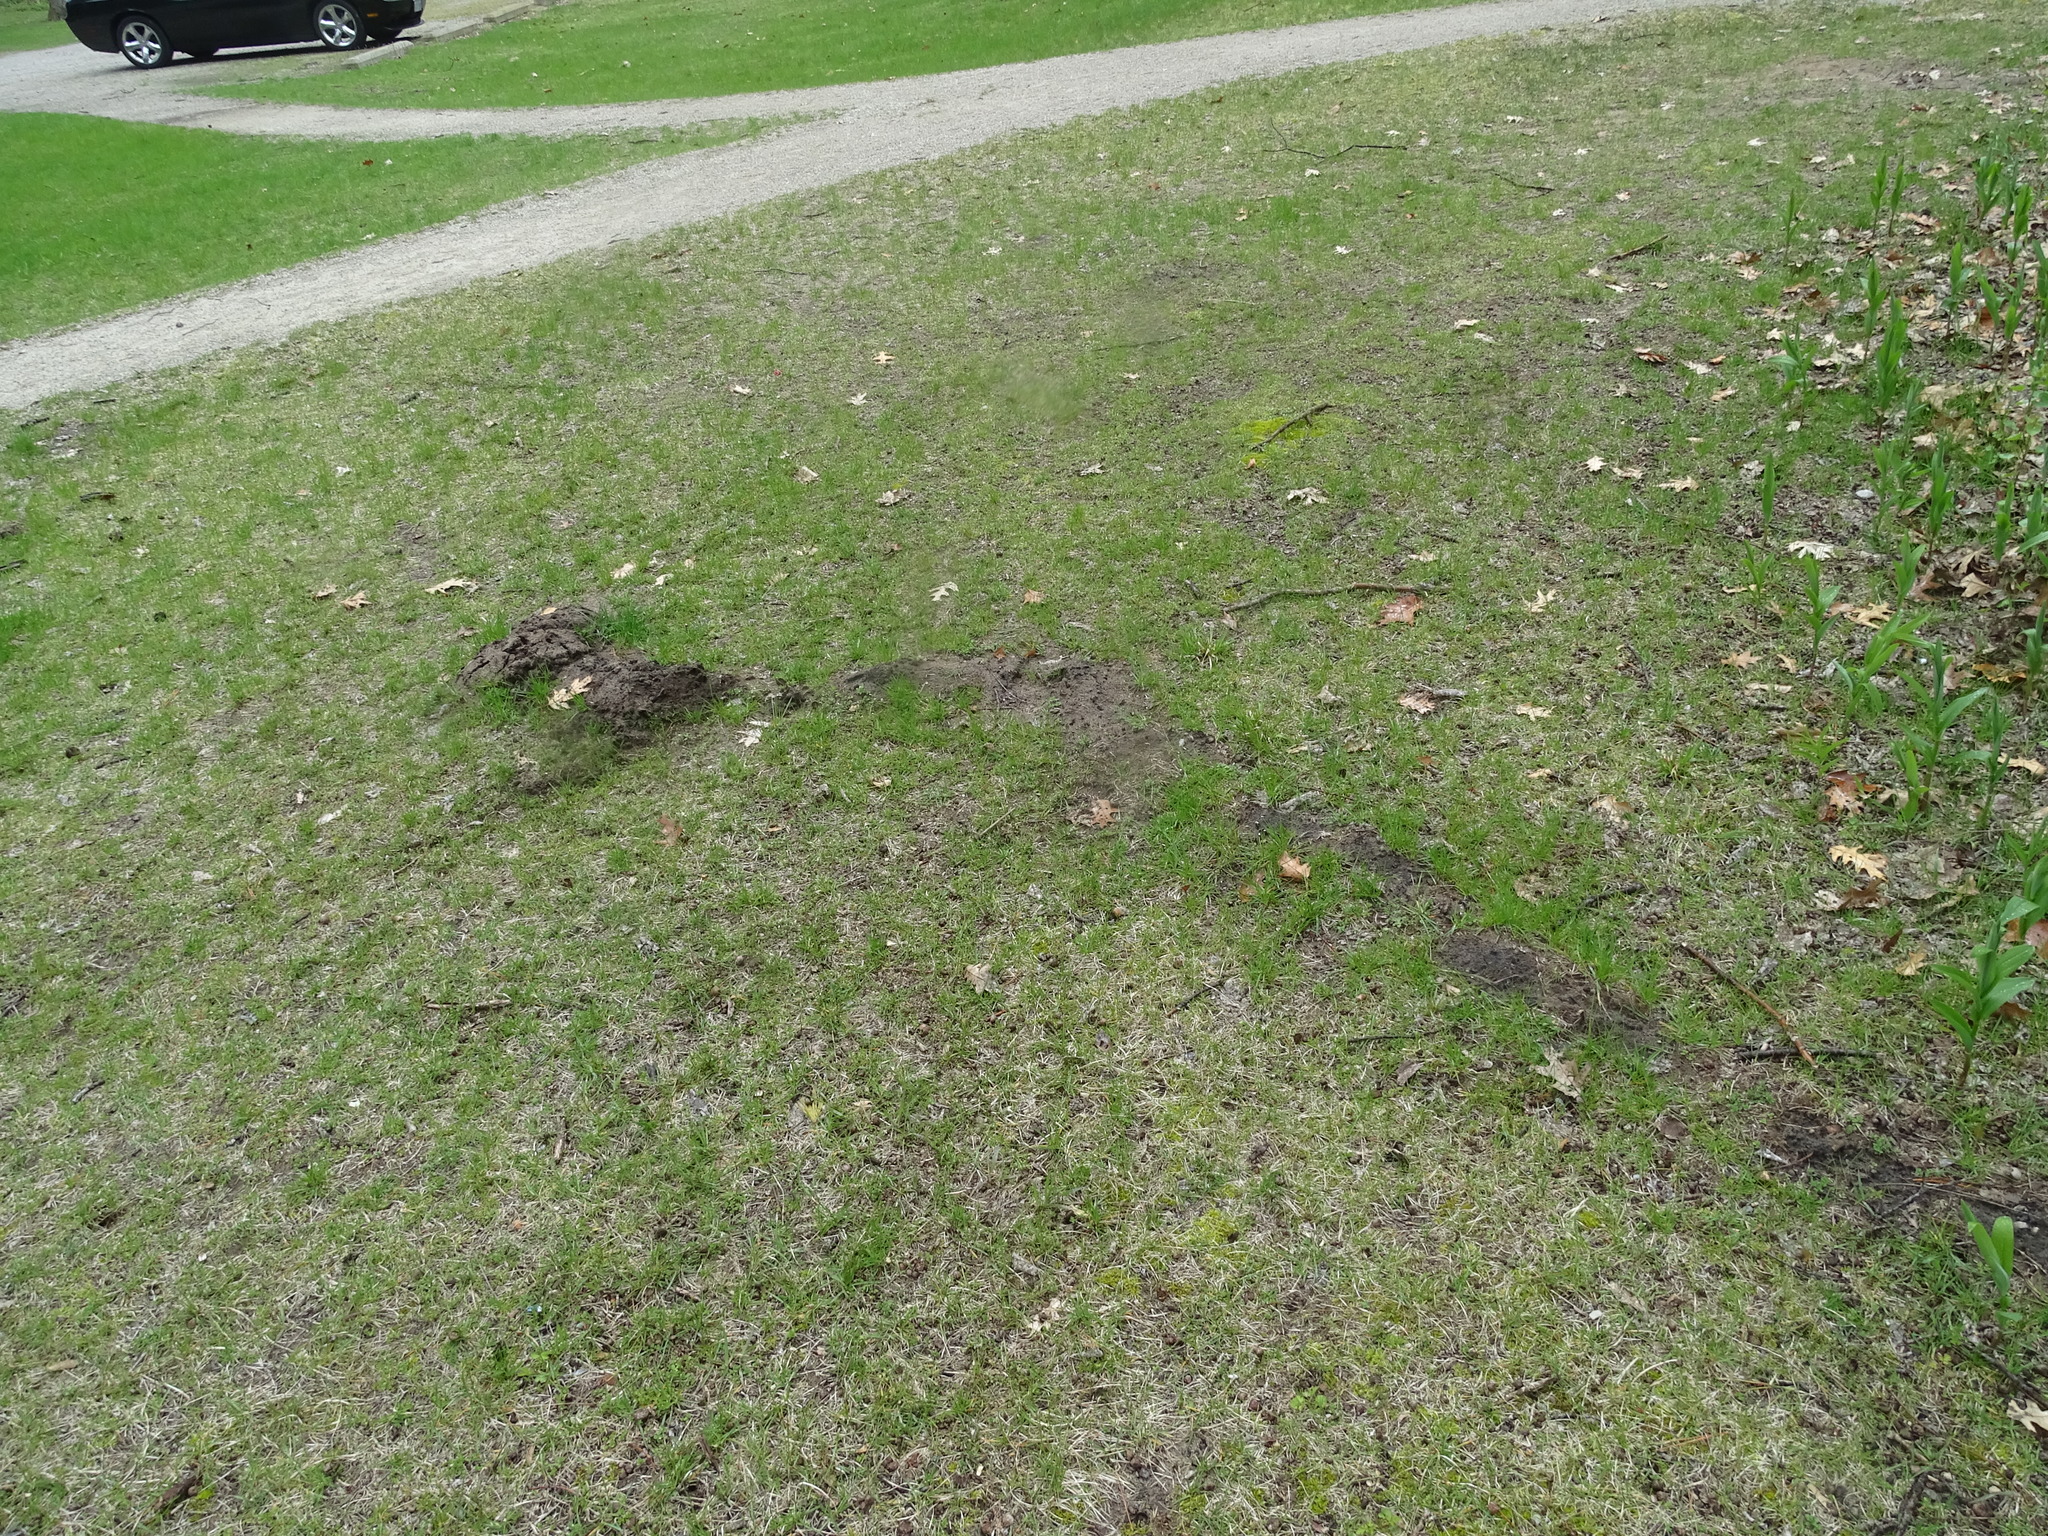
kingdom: Animalia
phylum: Chordata
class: Mammalia
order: Soricomorpha
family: Talpidae
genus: Scalopus
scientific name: Scalopus aquaticus
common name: Eastern mole
